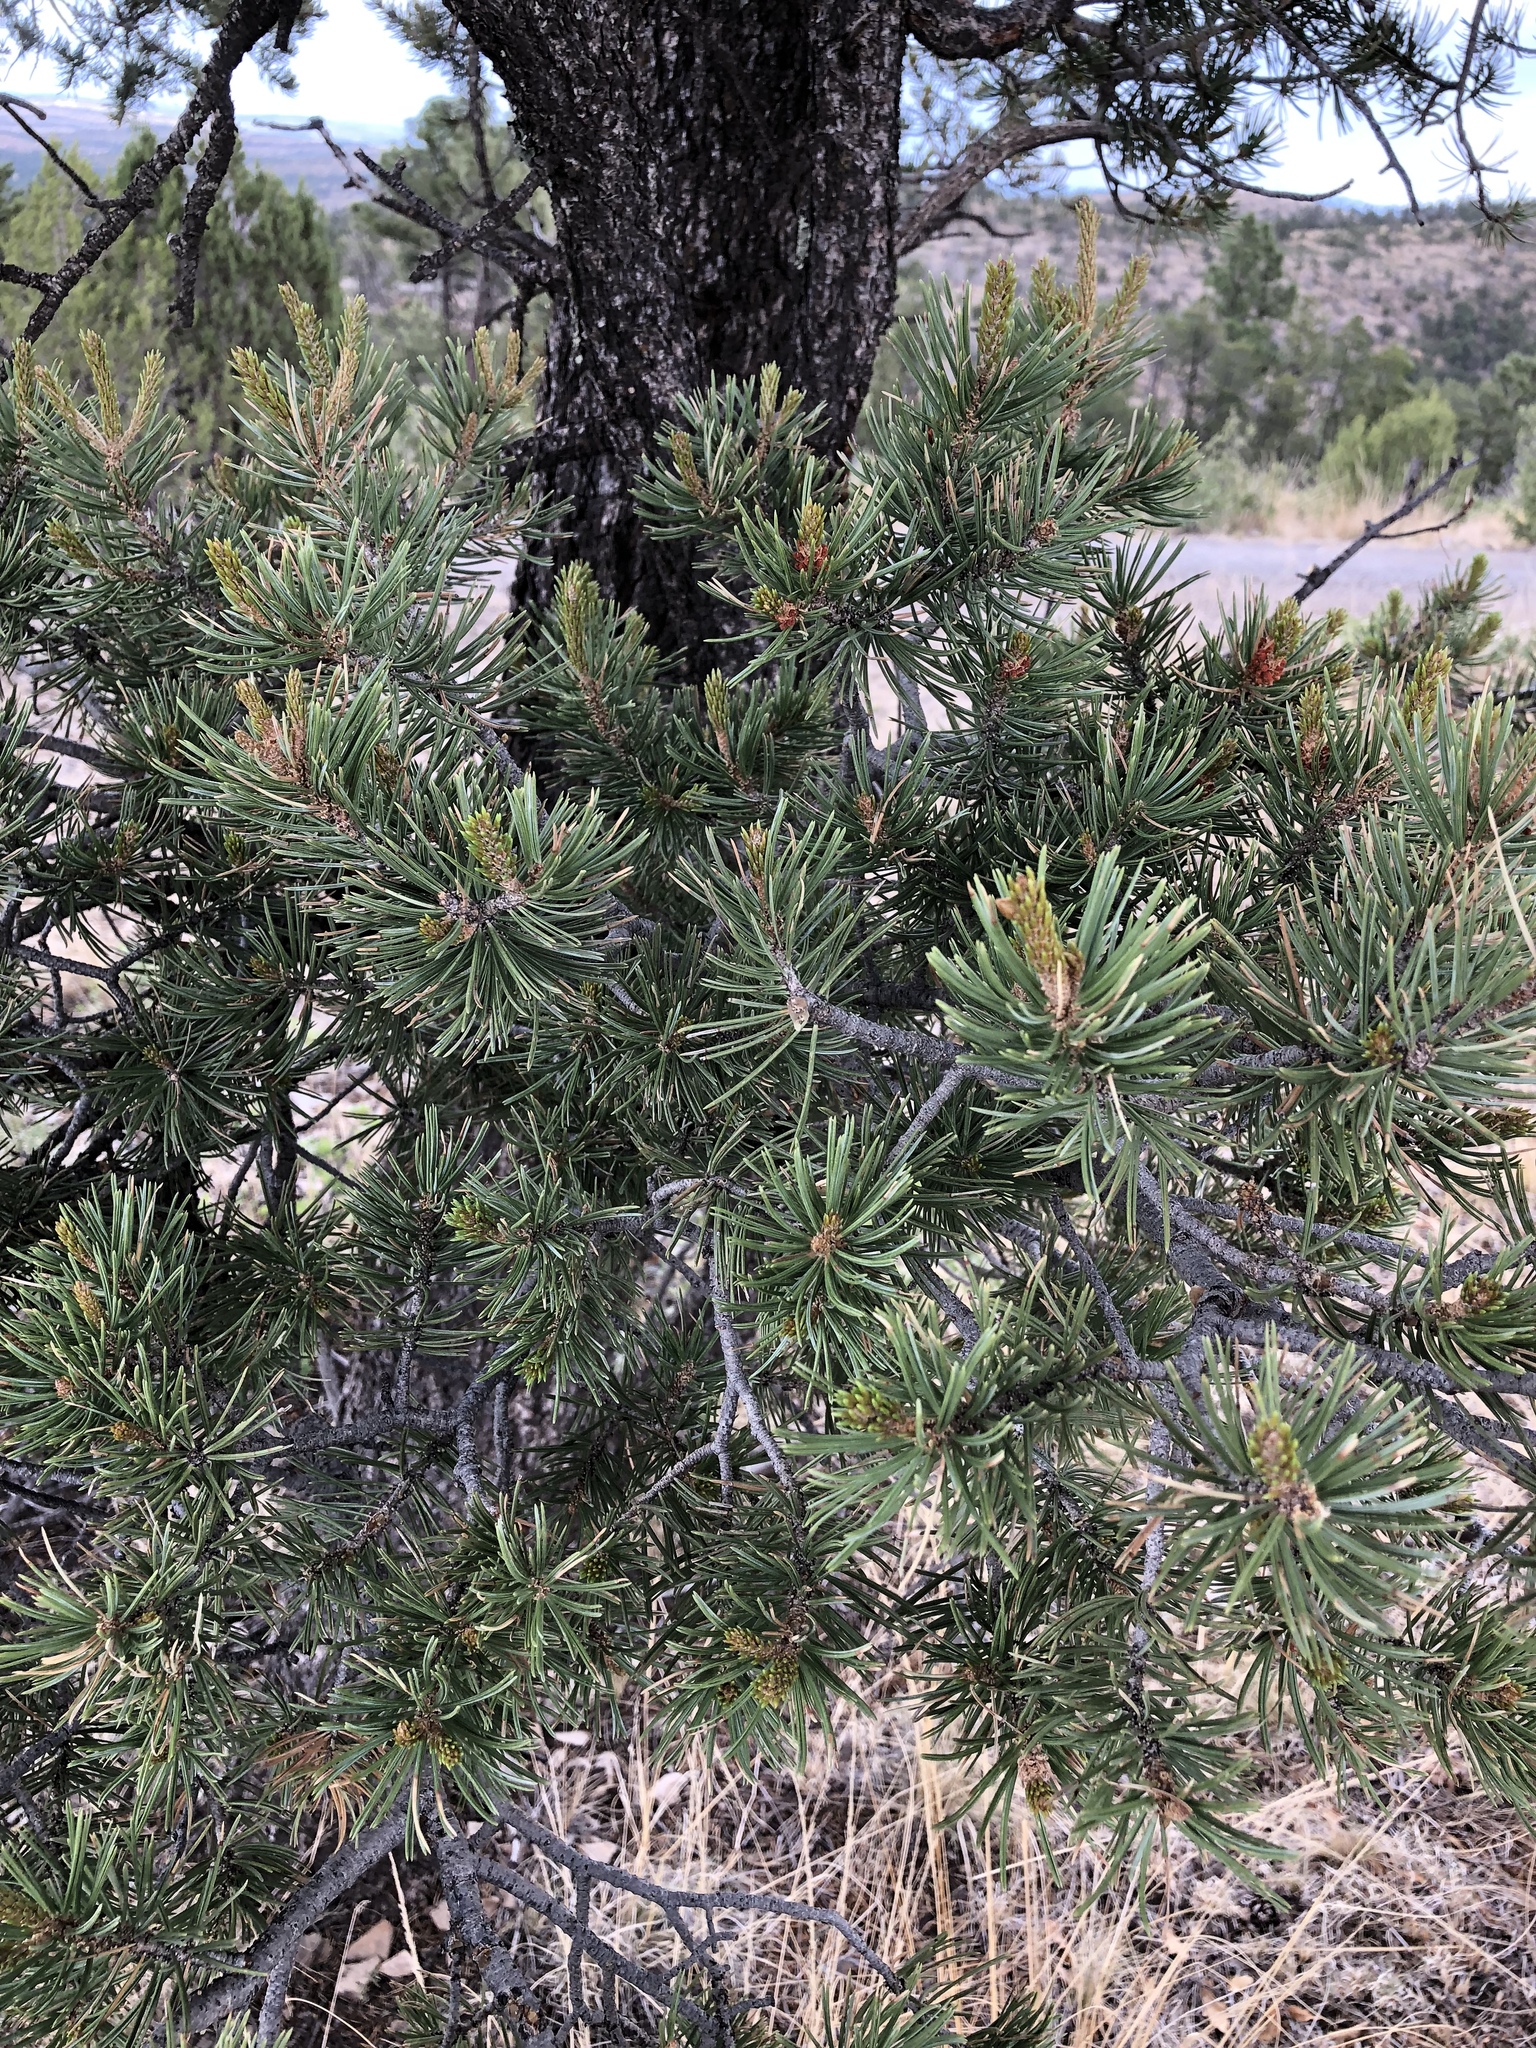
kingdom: Plantae
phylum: Tracheophyta
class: Pinopsida
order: Pinales
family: Pinaceae
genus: Pinus
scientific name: Pinus edulis
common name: Colorado pinyon
